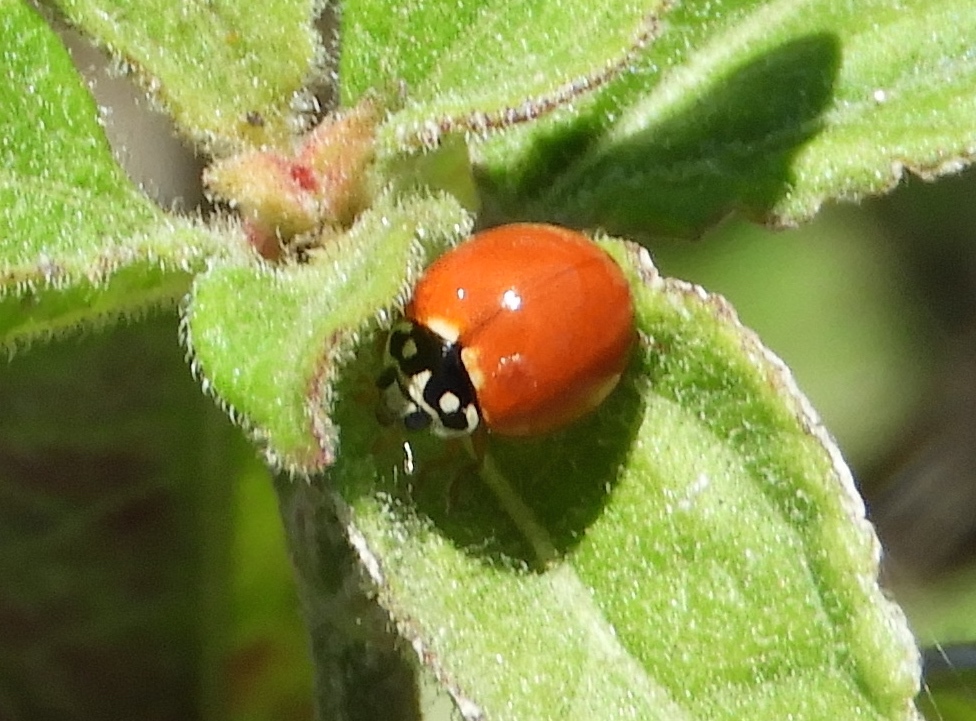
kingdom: Animalia
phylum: Arthropoda
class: Insecta
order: Coleoptera
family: Coccinellidae
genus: Cycloneda
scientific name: Cycloneda sanguinea
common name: Ladybird beetle
